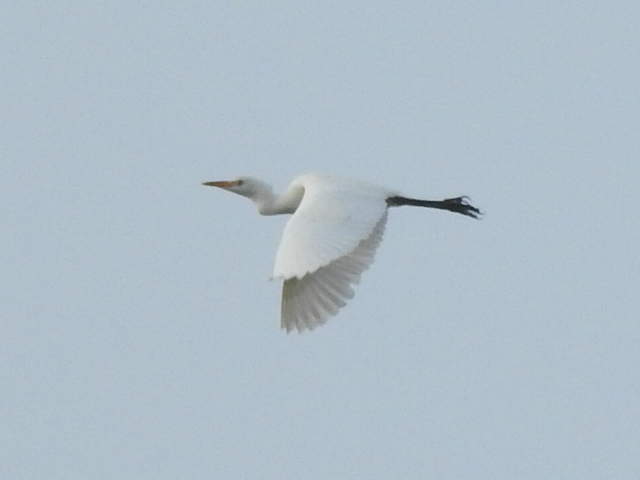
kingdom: Animalia
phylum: Chordata
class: Aves
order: Pelecaniformes
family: Ardeidae
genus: Bubulcus
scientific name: Bubulcus ibis
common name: Cattle egret
